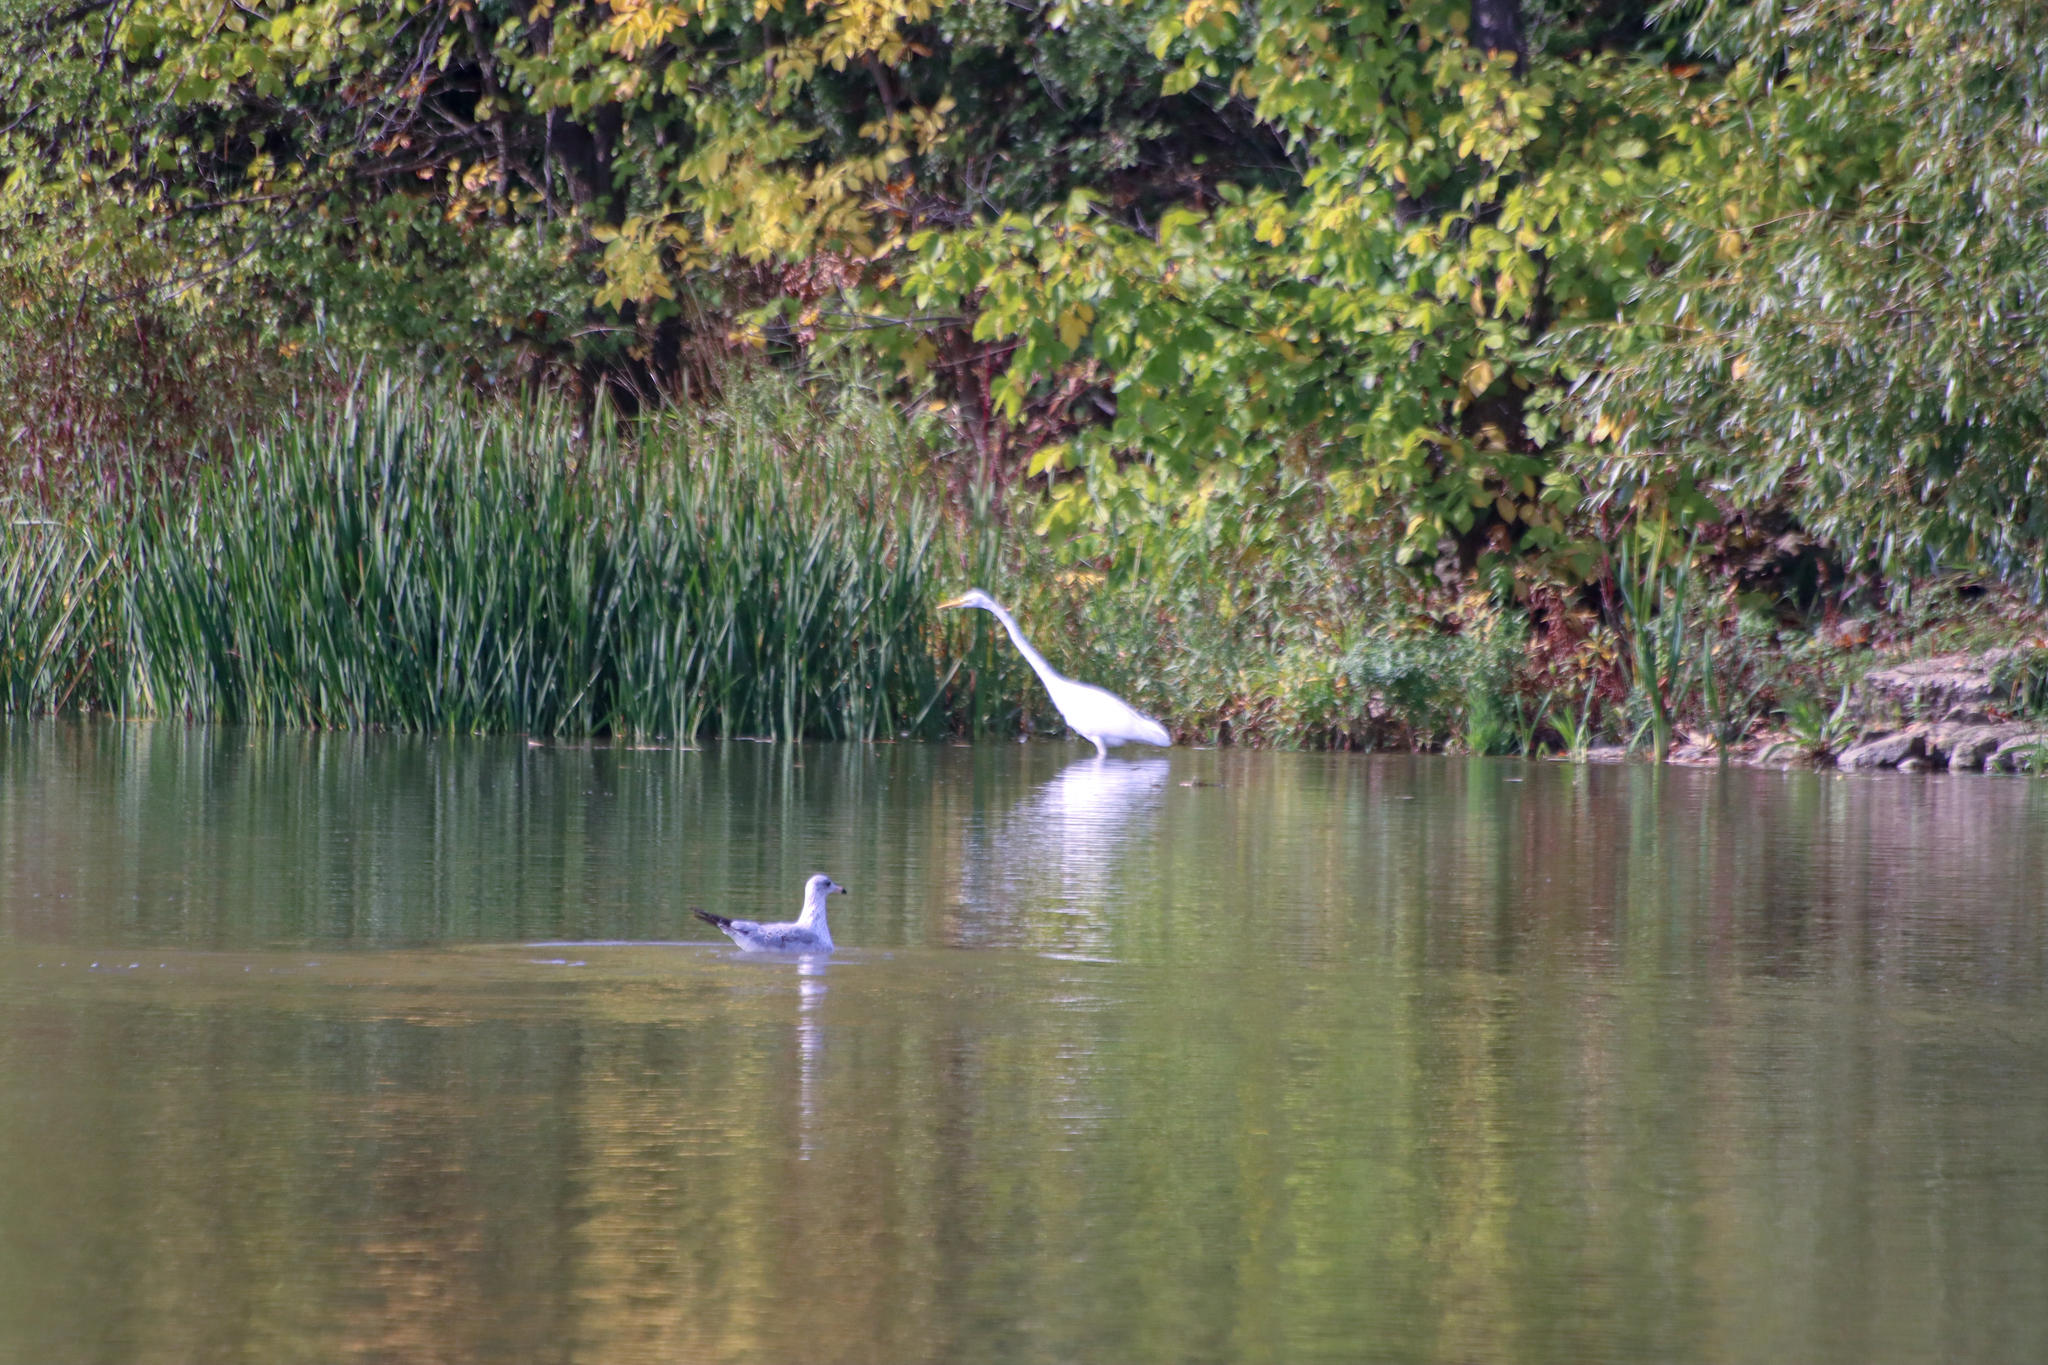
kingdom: Animalia
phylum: Chordata
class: Aves
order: Pelecaniformes
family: Ardeidae
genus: Ardea
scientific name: Ardea alba
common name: Great egret
